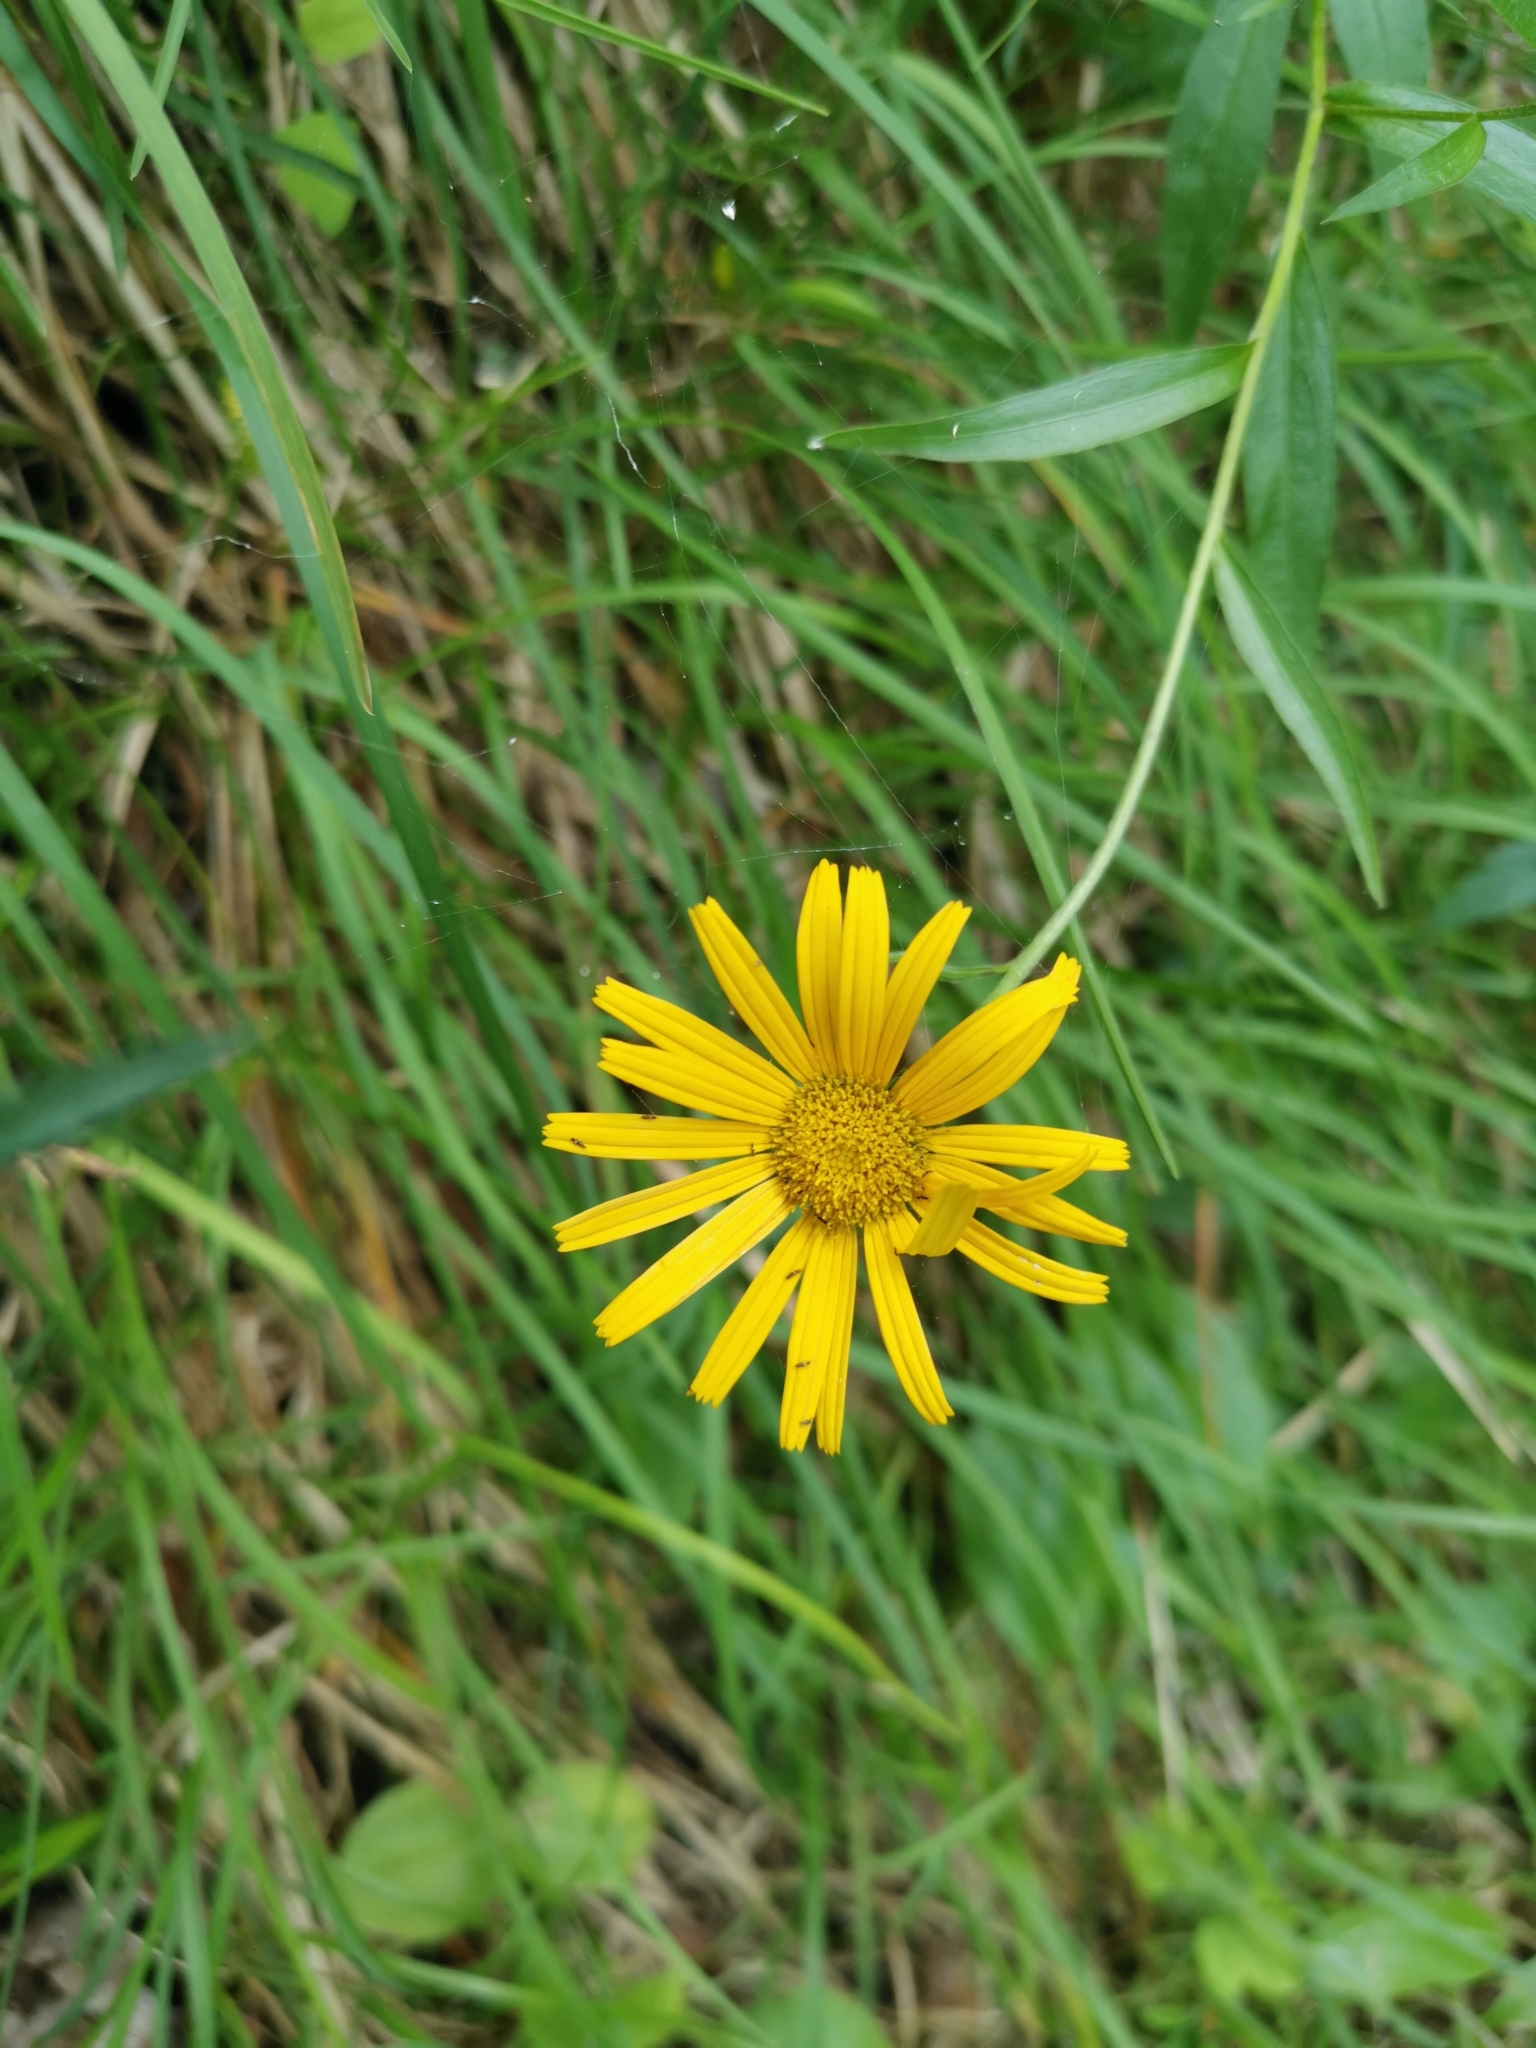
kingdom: Plantae
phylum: Tracheophyta
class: Magnoliopsida
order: Asterales
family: Asteraceae
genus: Buphthalmum
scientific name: Buphthalmum salicifolium
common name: Willow-leaved yellow-oxeye
